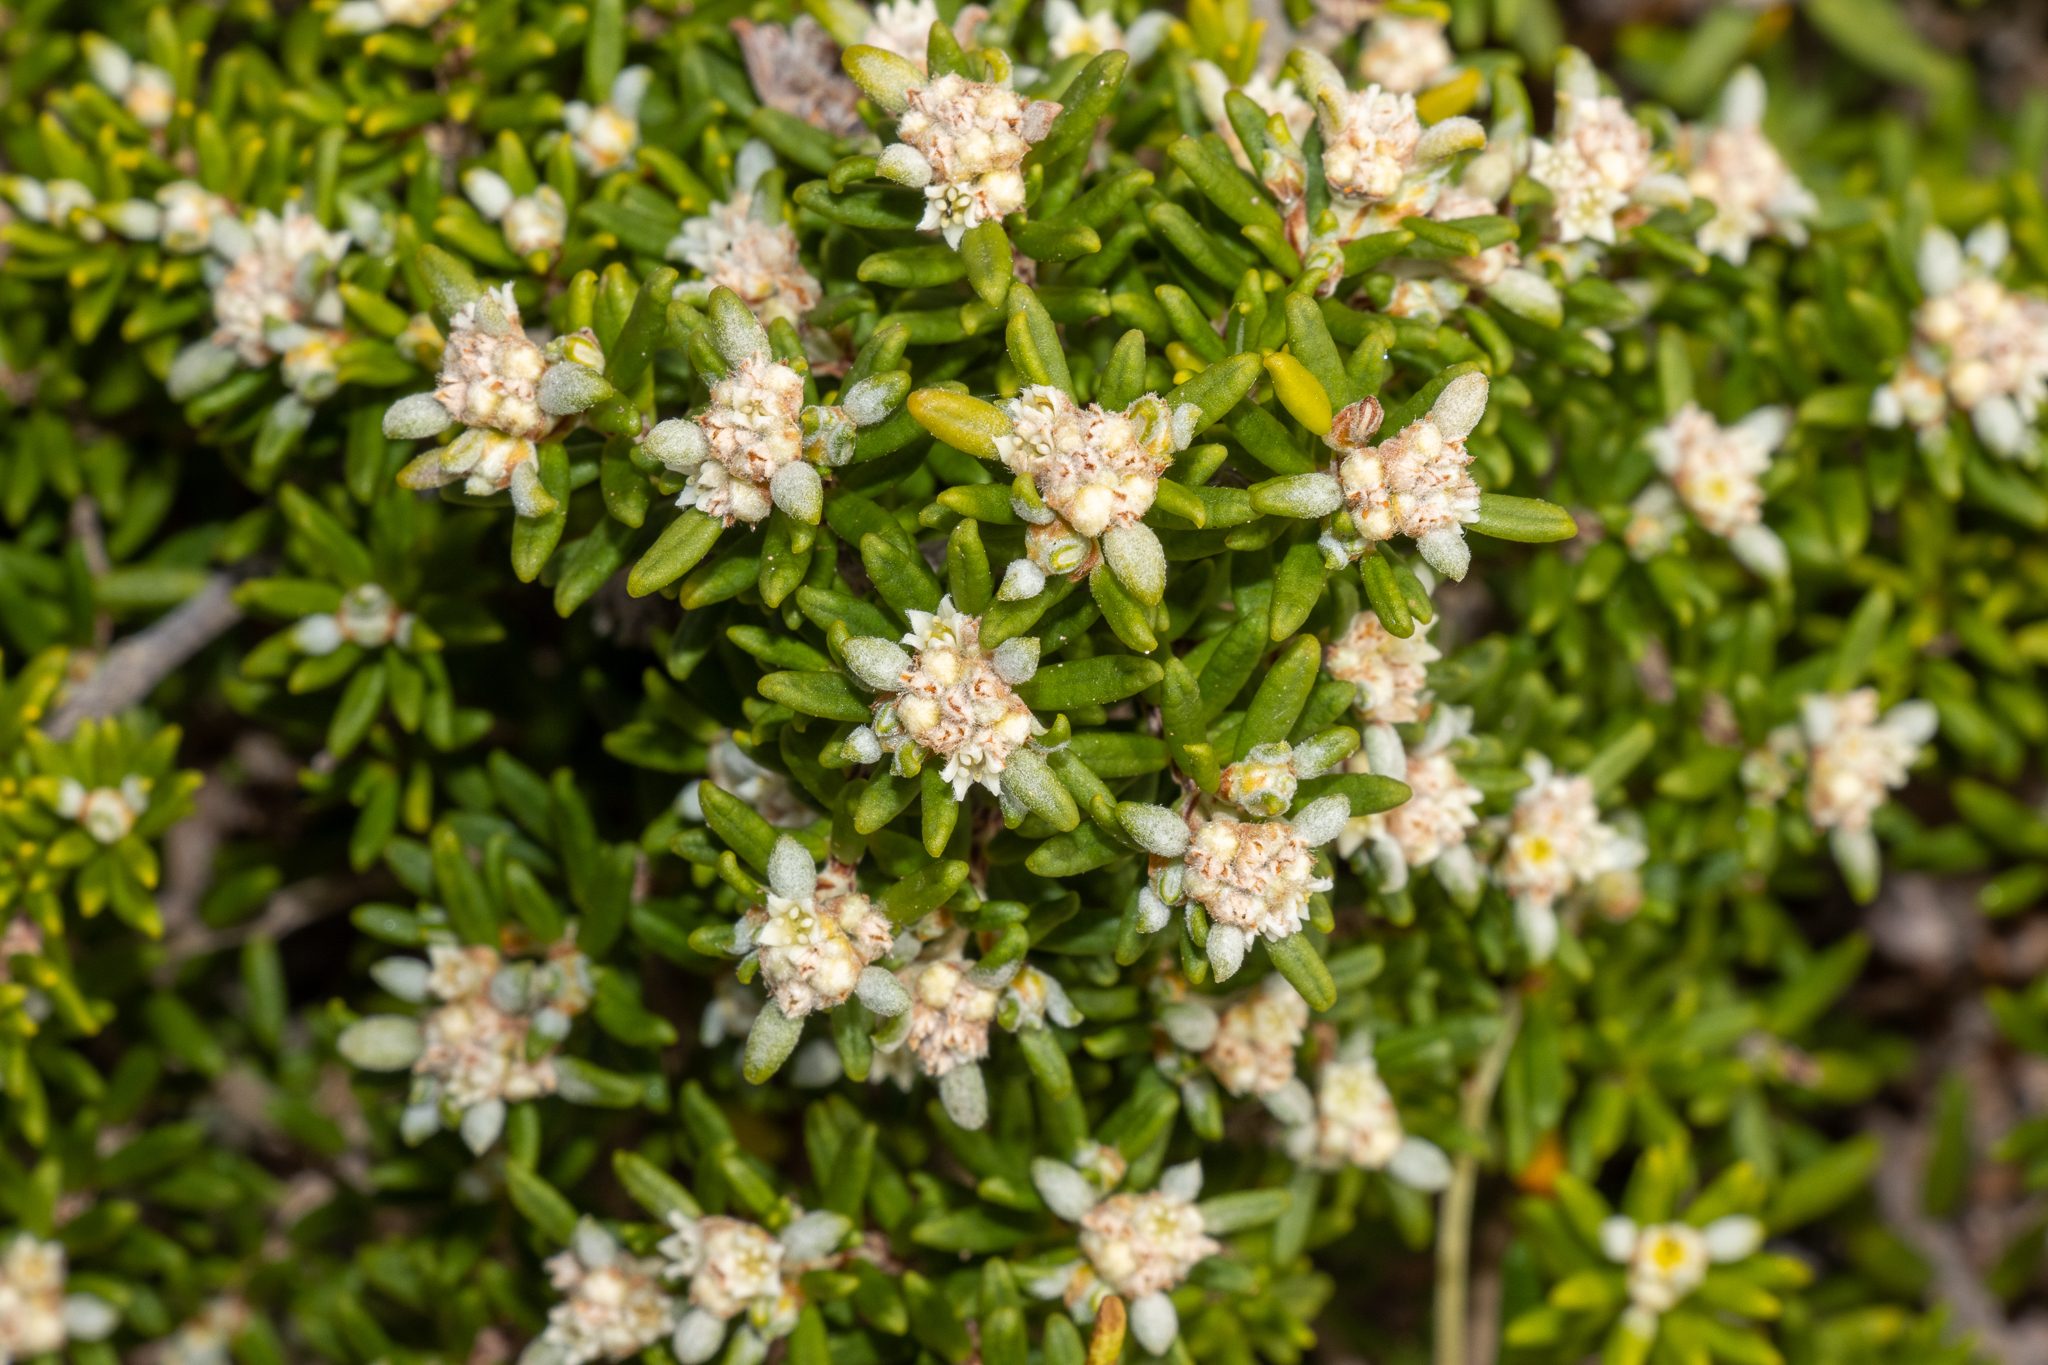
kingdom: Plantae
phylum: Tracheophyta
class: Magnoliopsida
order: Rosales
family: Rhamnaceae
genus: Spyridium
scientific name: Spyridium phylicoides
